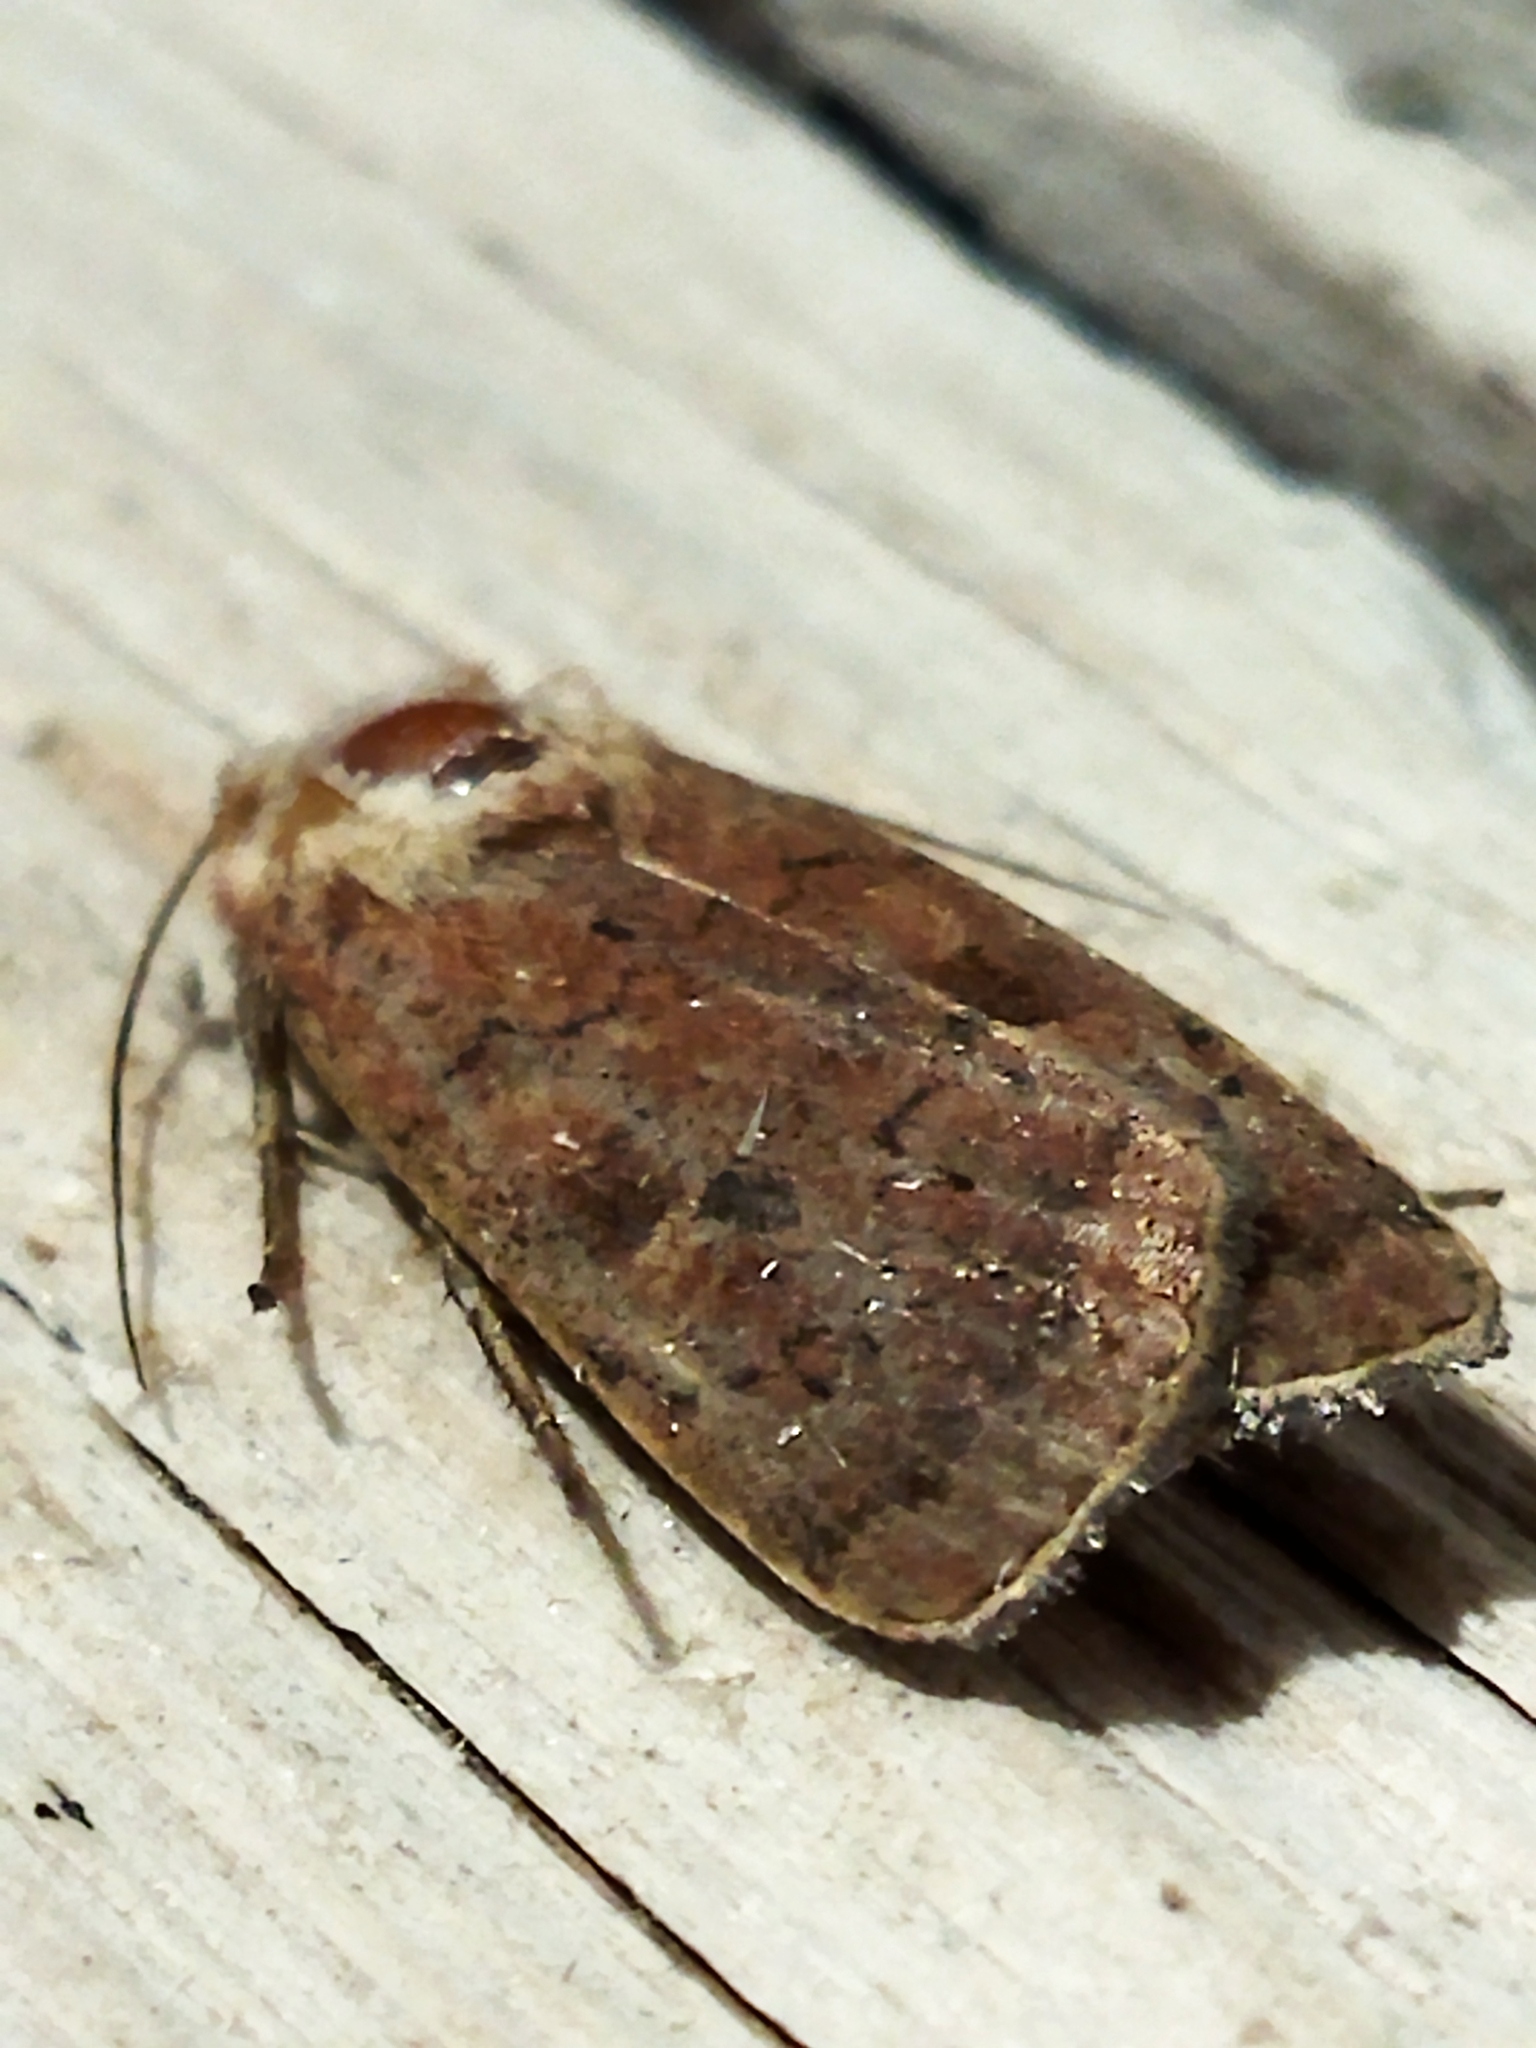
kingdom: Animalia
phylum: Arthropoda
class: Insecta
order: Lepidoptera
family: Noctuidae
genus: Xestia
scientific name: Xestia xanthographa
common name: Square-spot rustic
